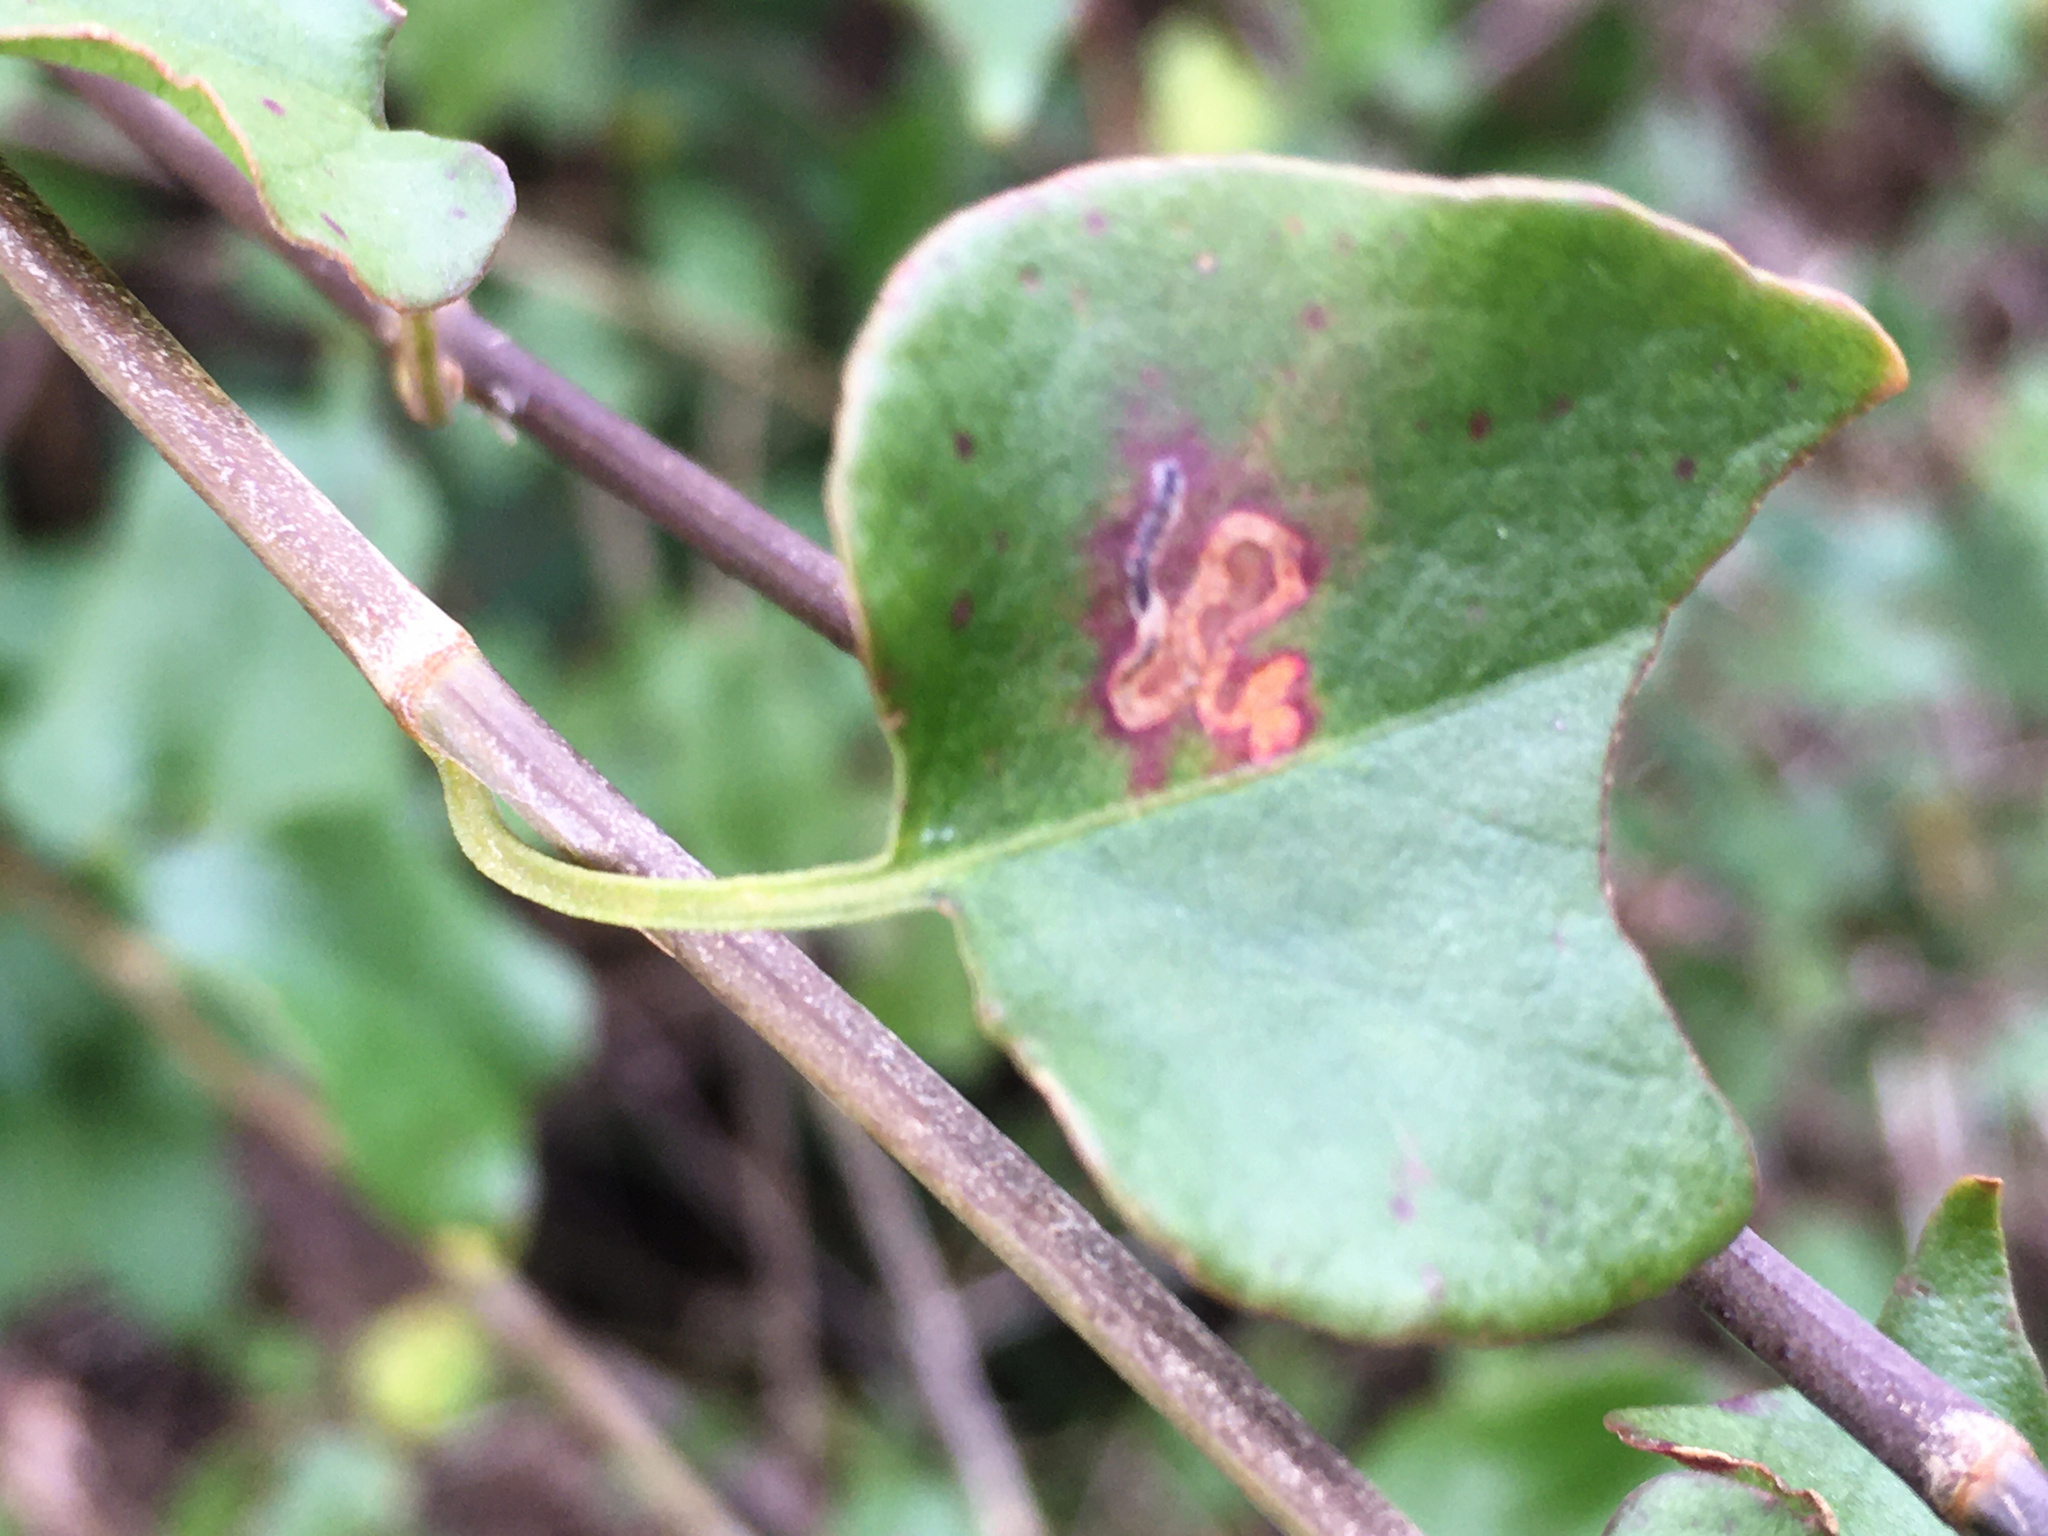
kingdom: Animalia
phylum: Arthropoda
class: Insecta
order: Lepidoptera
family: Momphidae
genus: Zapyrastra
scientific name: Zapyrastra calliphana
